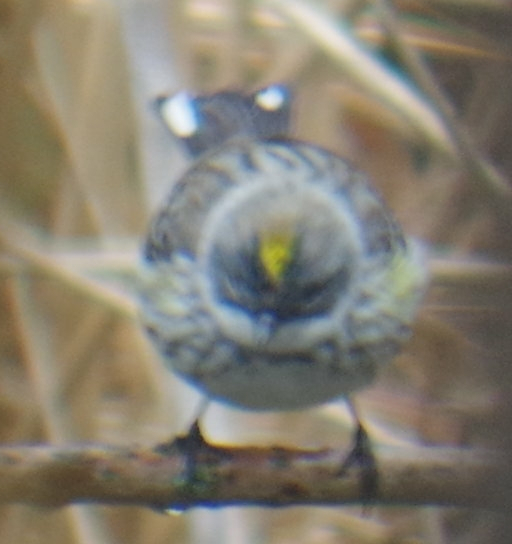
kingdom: Animalia
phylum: Chordata
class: Aves
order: Passeriformes
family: Parulidae
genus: Setophaga
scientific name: Setophaga coronata
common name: Myrtle warbler
